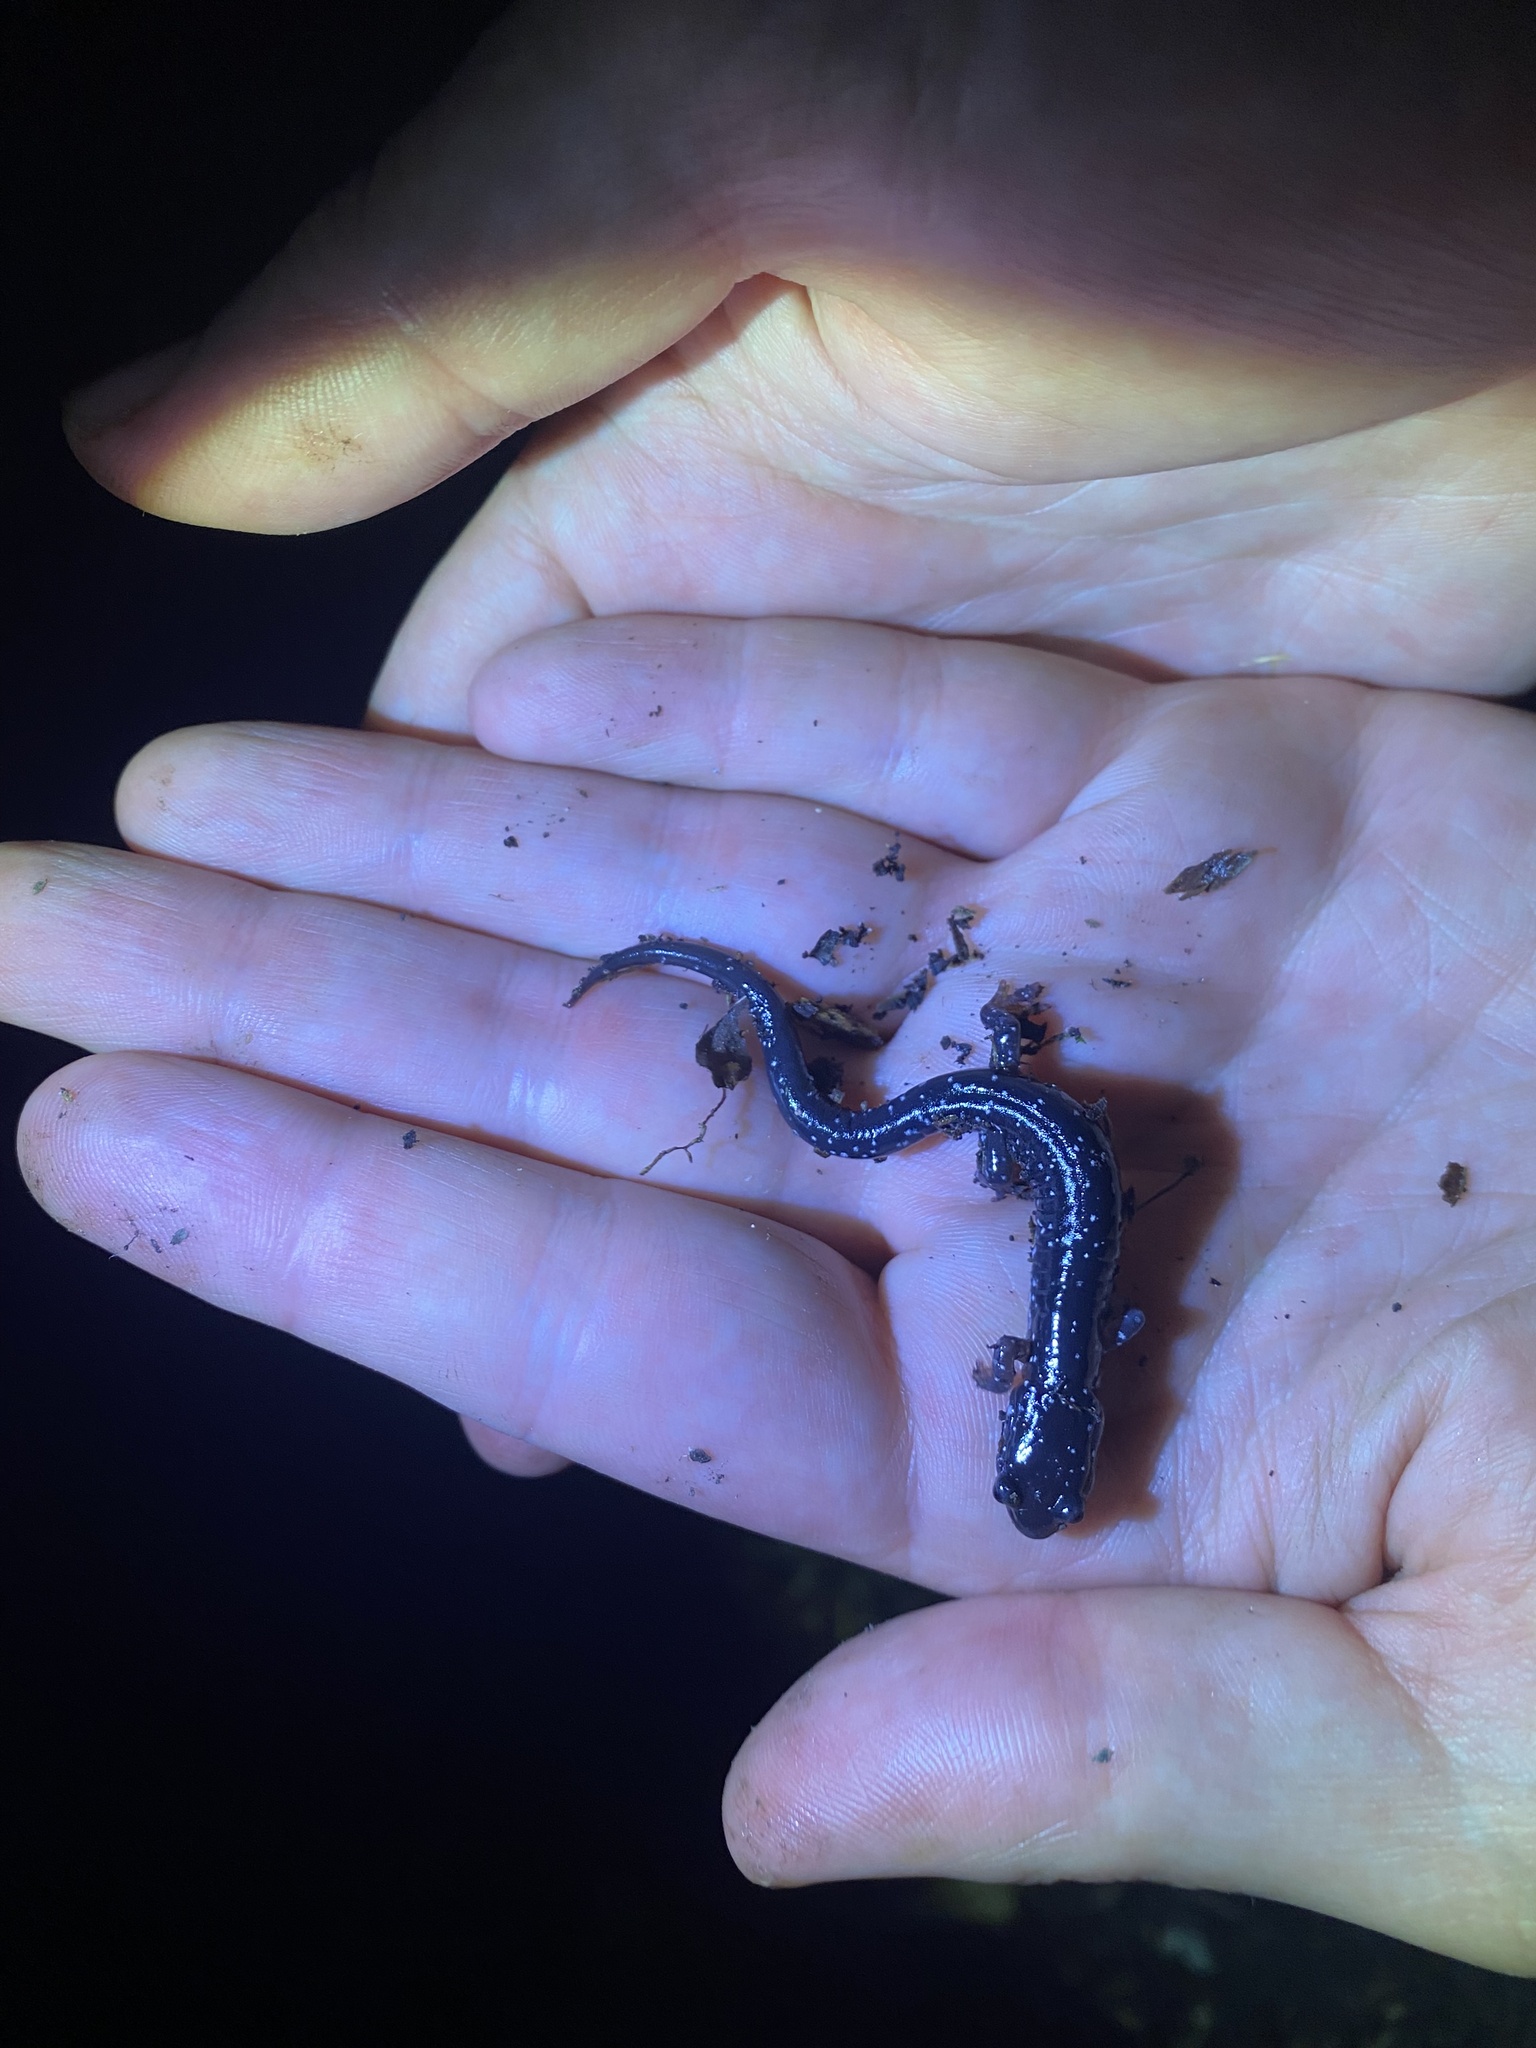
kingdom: Animalia
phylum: Chordata
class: Amphibia
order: Caudata
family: Plethodontidae
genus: Plethodon
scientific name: Plethodon cylindraceus
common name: White-spotted slimy salamander
